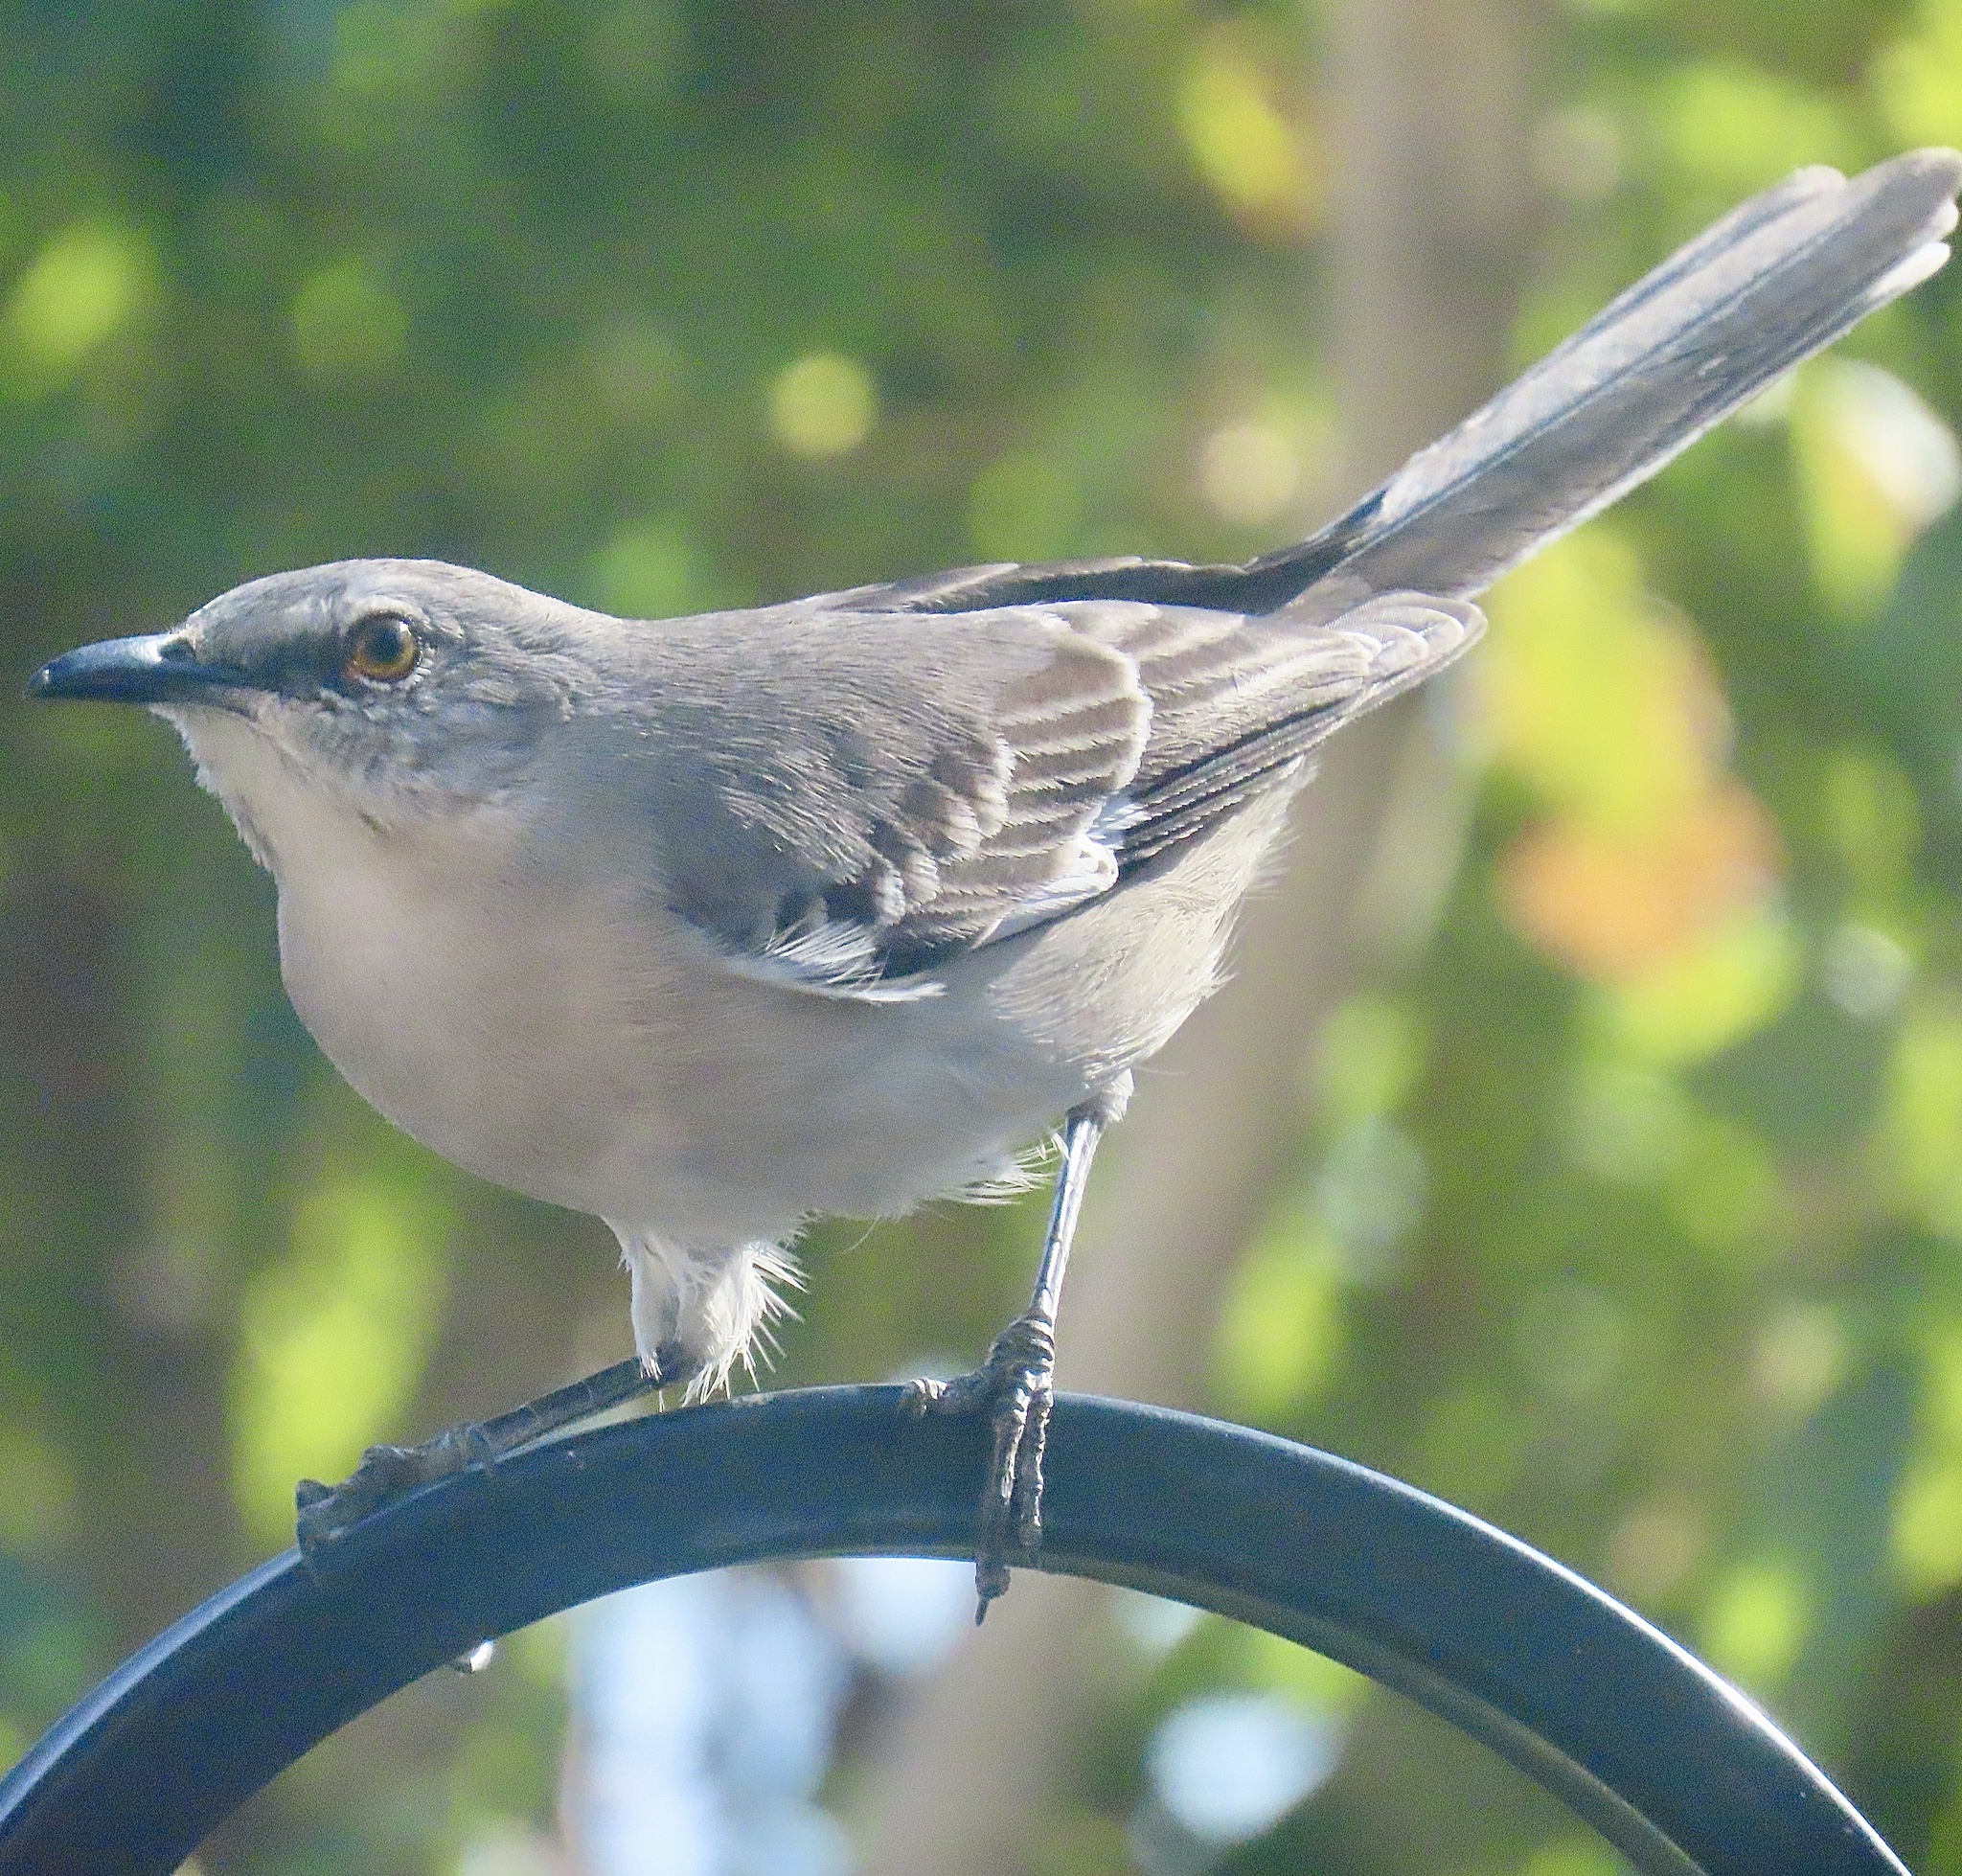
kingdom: Animalia
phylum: Chordata
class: Aves
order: Passeriformes
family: Mimidae
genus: Mimus
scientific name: Mimus polyglottos
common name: Northern mockingbird
